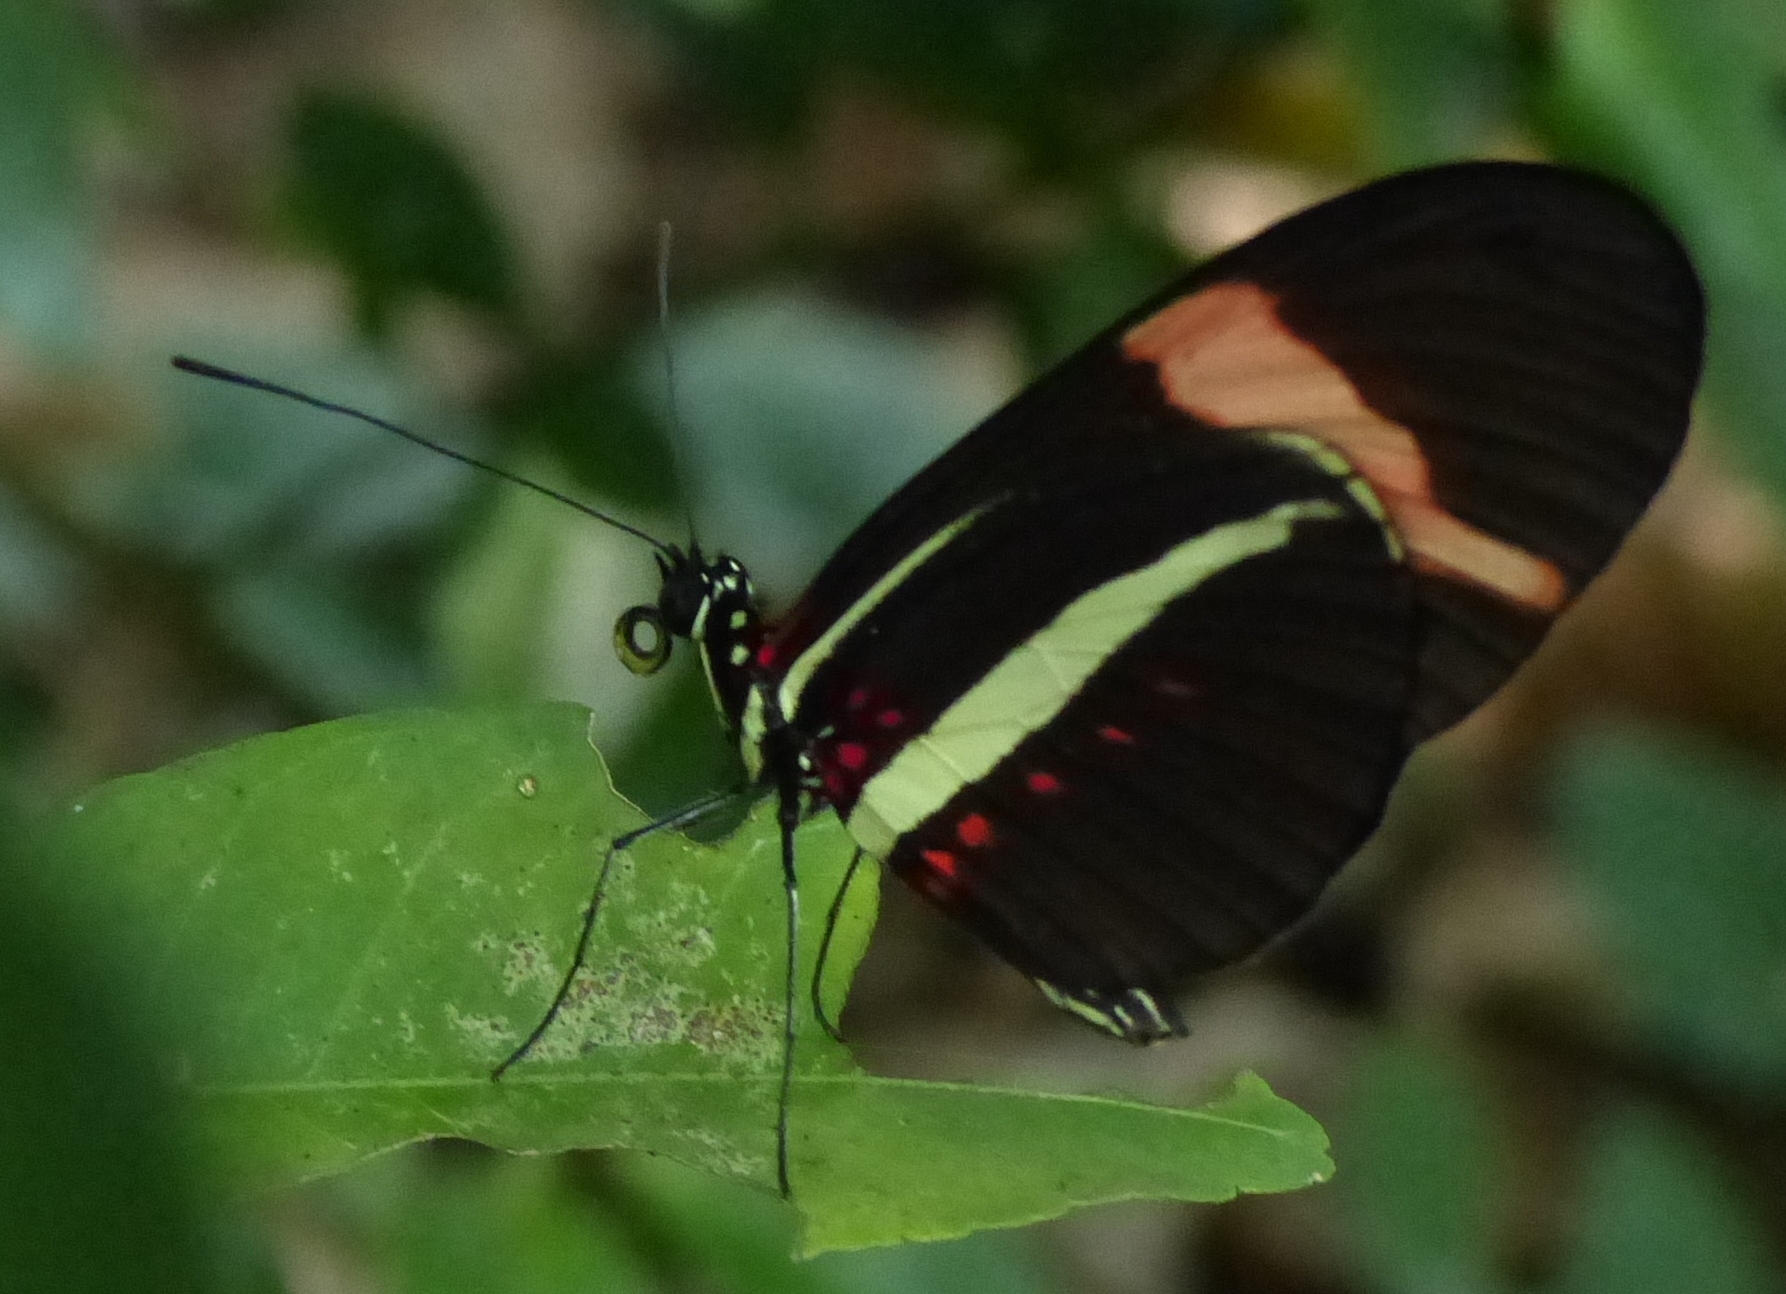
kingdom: Animalia
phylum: Arthropoda
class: Insecta
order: Lepidoptera
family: Nymphalidae
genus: Heliconius
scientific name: Heliconius erato
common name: Common patch longwing
